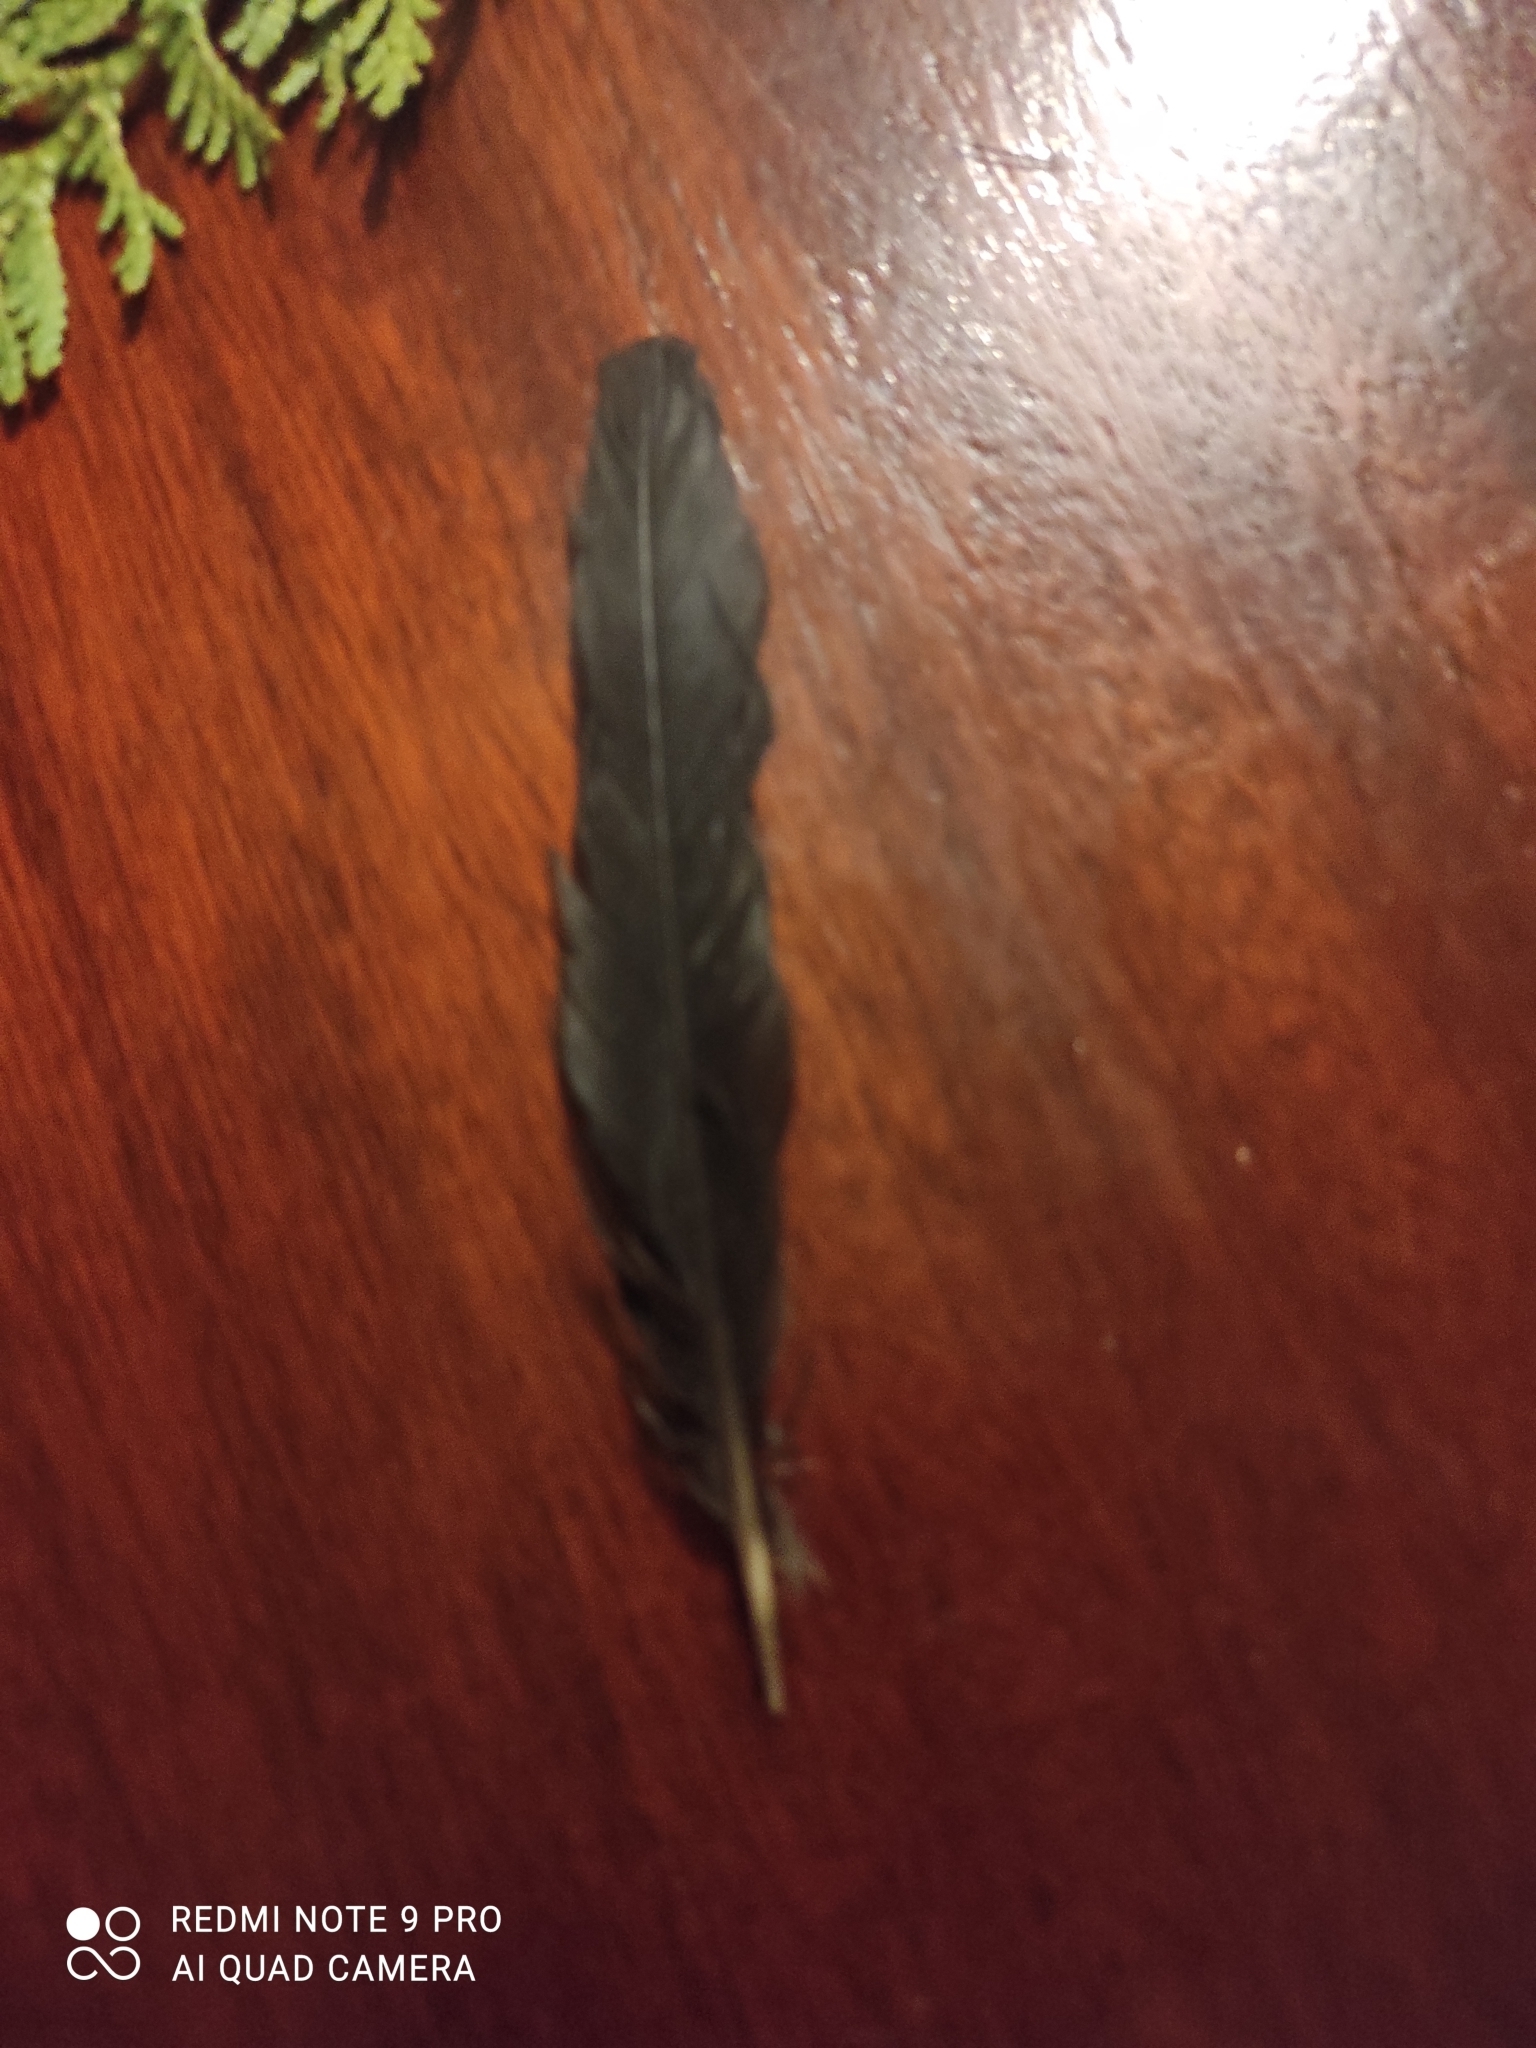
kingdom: Animalia
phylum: Chordata
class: Aves
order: Passeriformes
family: Turdidae
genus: Turdus
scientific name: Turdus merula
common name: Common blackbird
